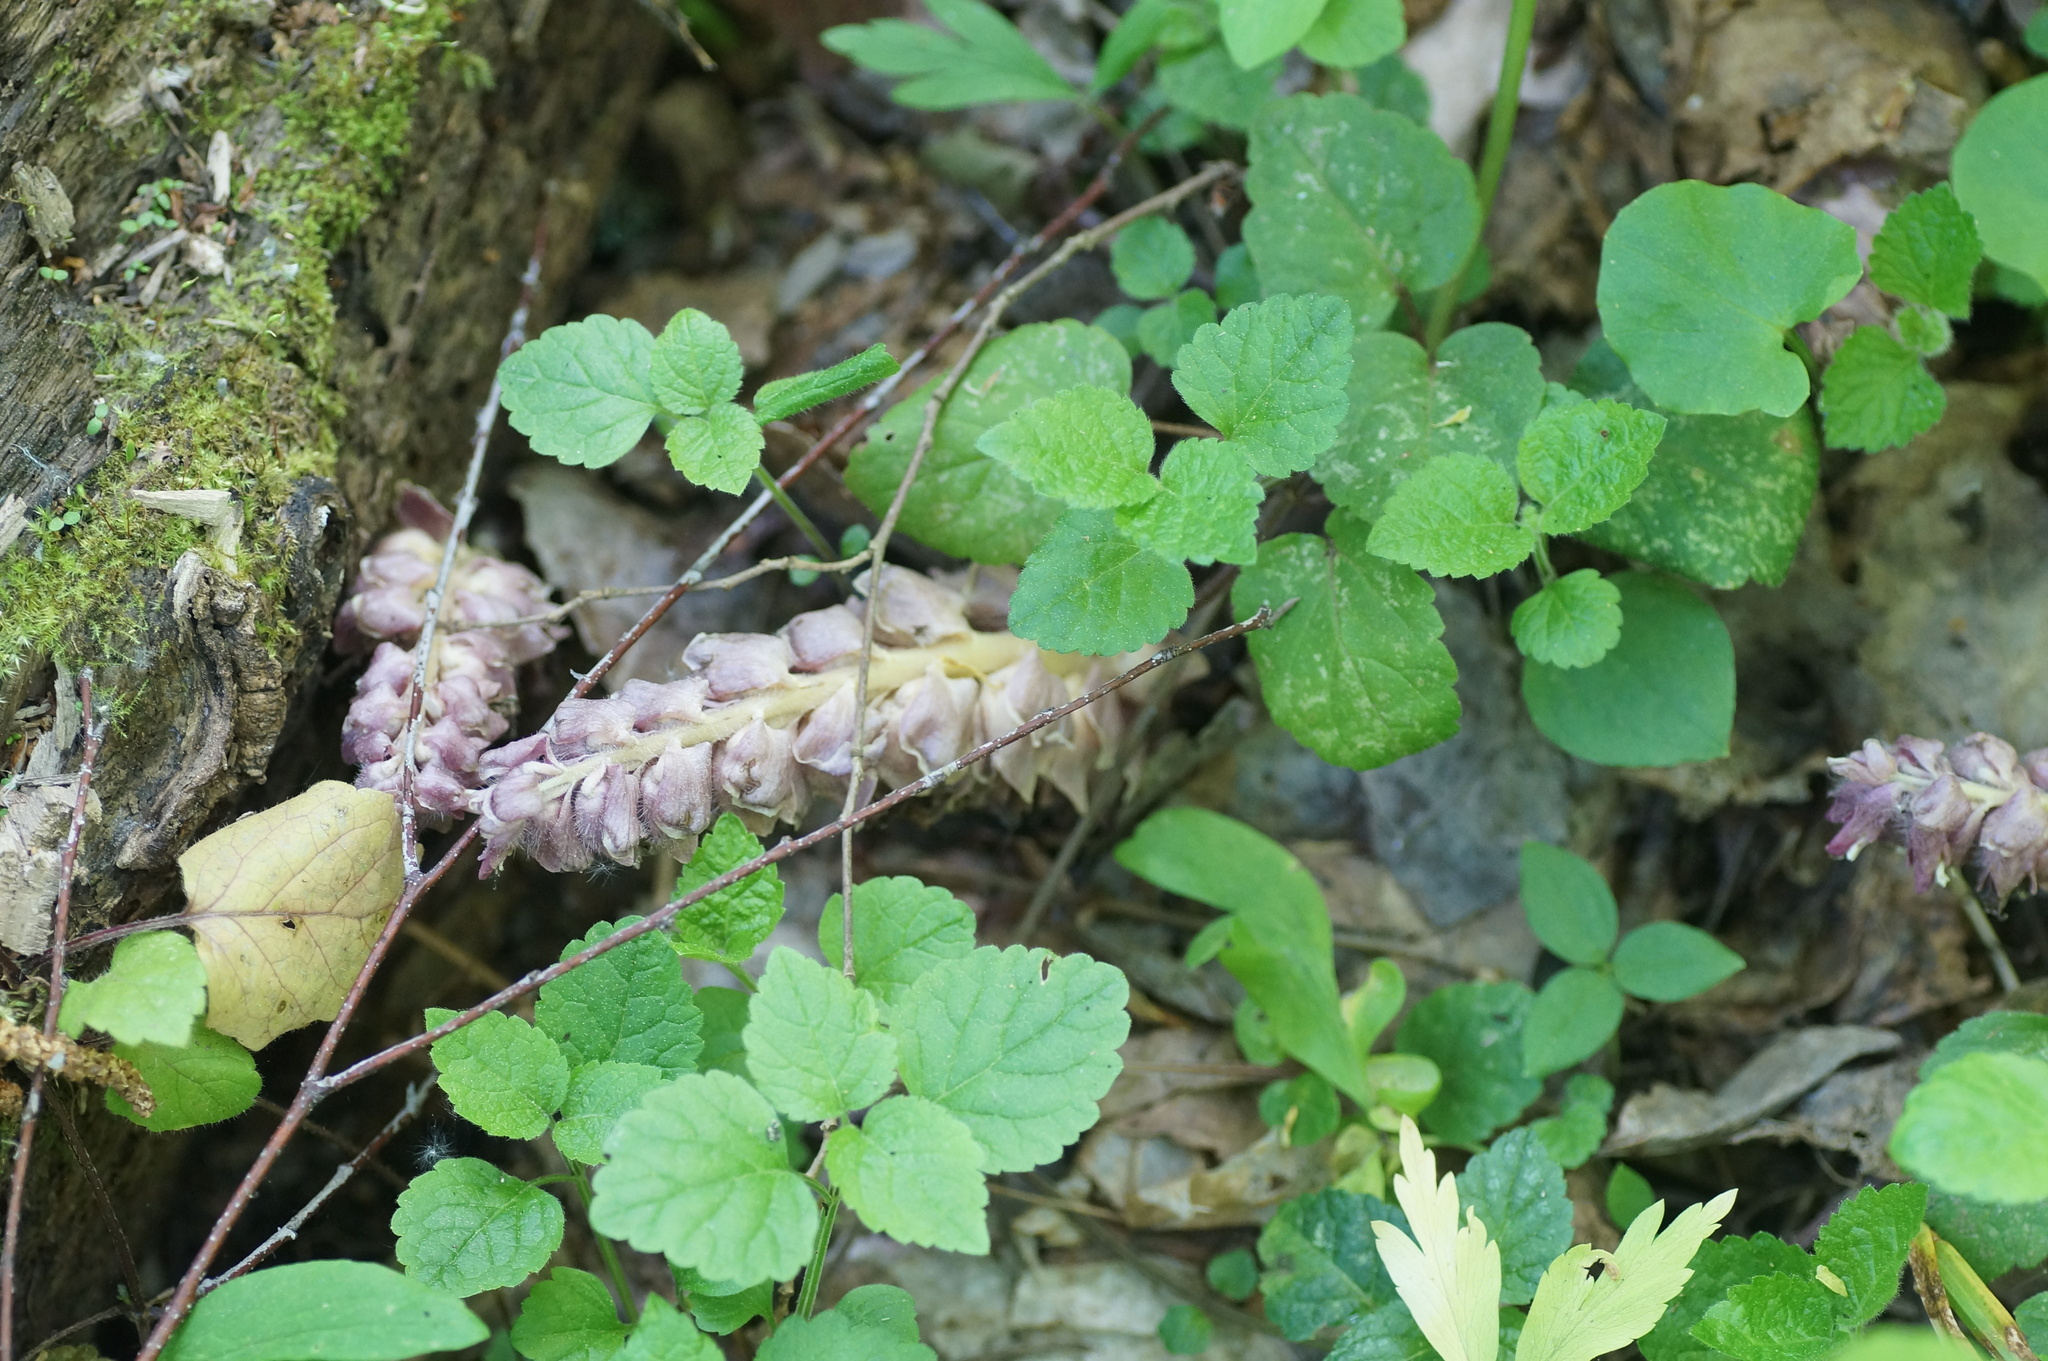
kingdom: Plantae
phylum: Tracheophyta
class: Magnoliopsida
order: Lamiales
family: Orobanchaceae
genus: Lathraea
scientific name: Lathraea squamaria
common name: Toothwort
